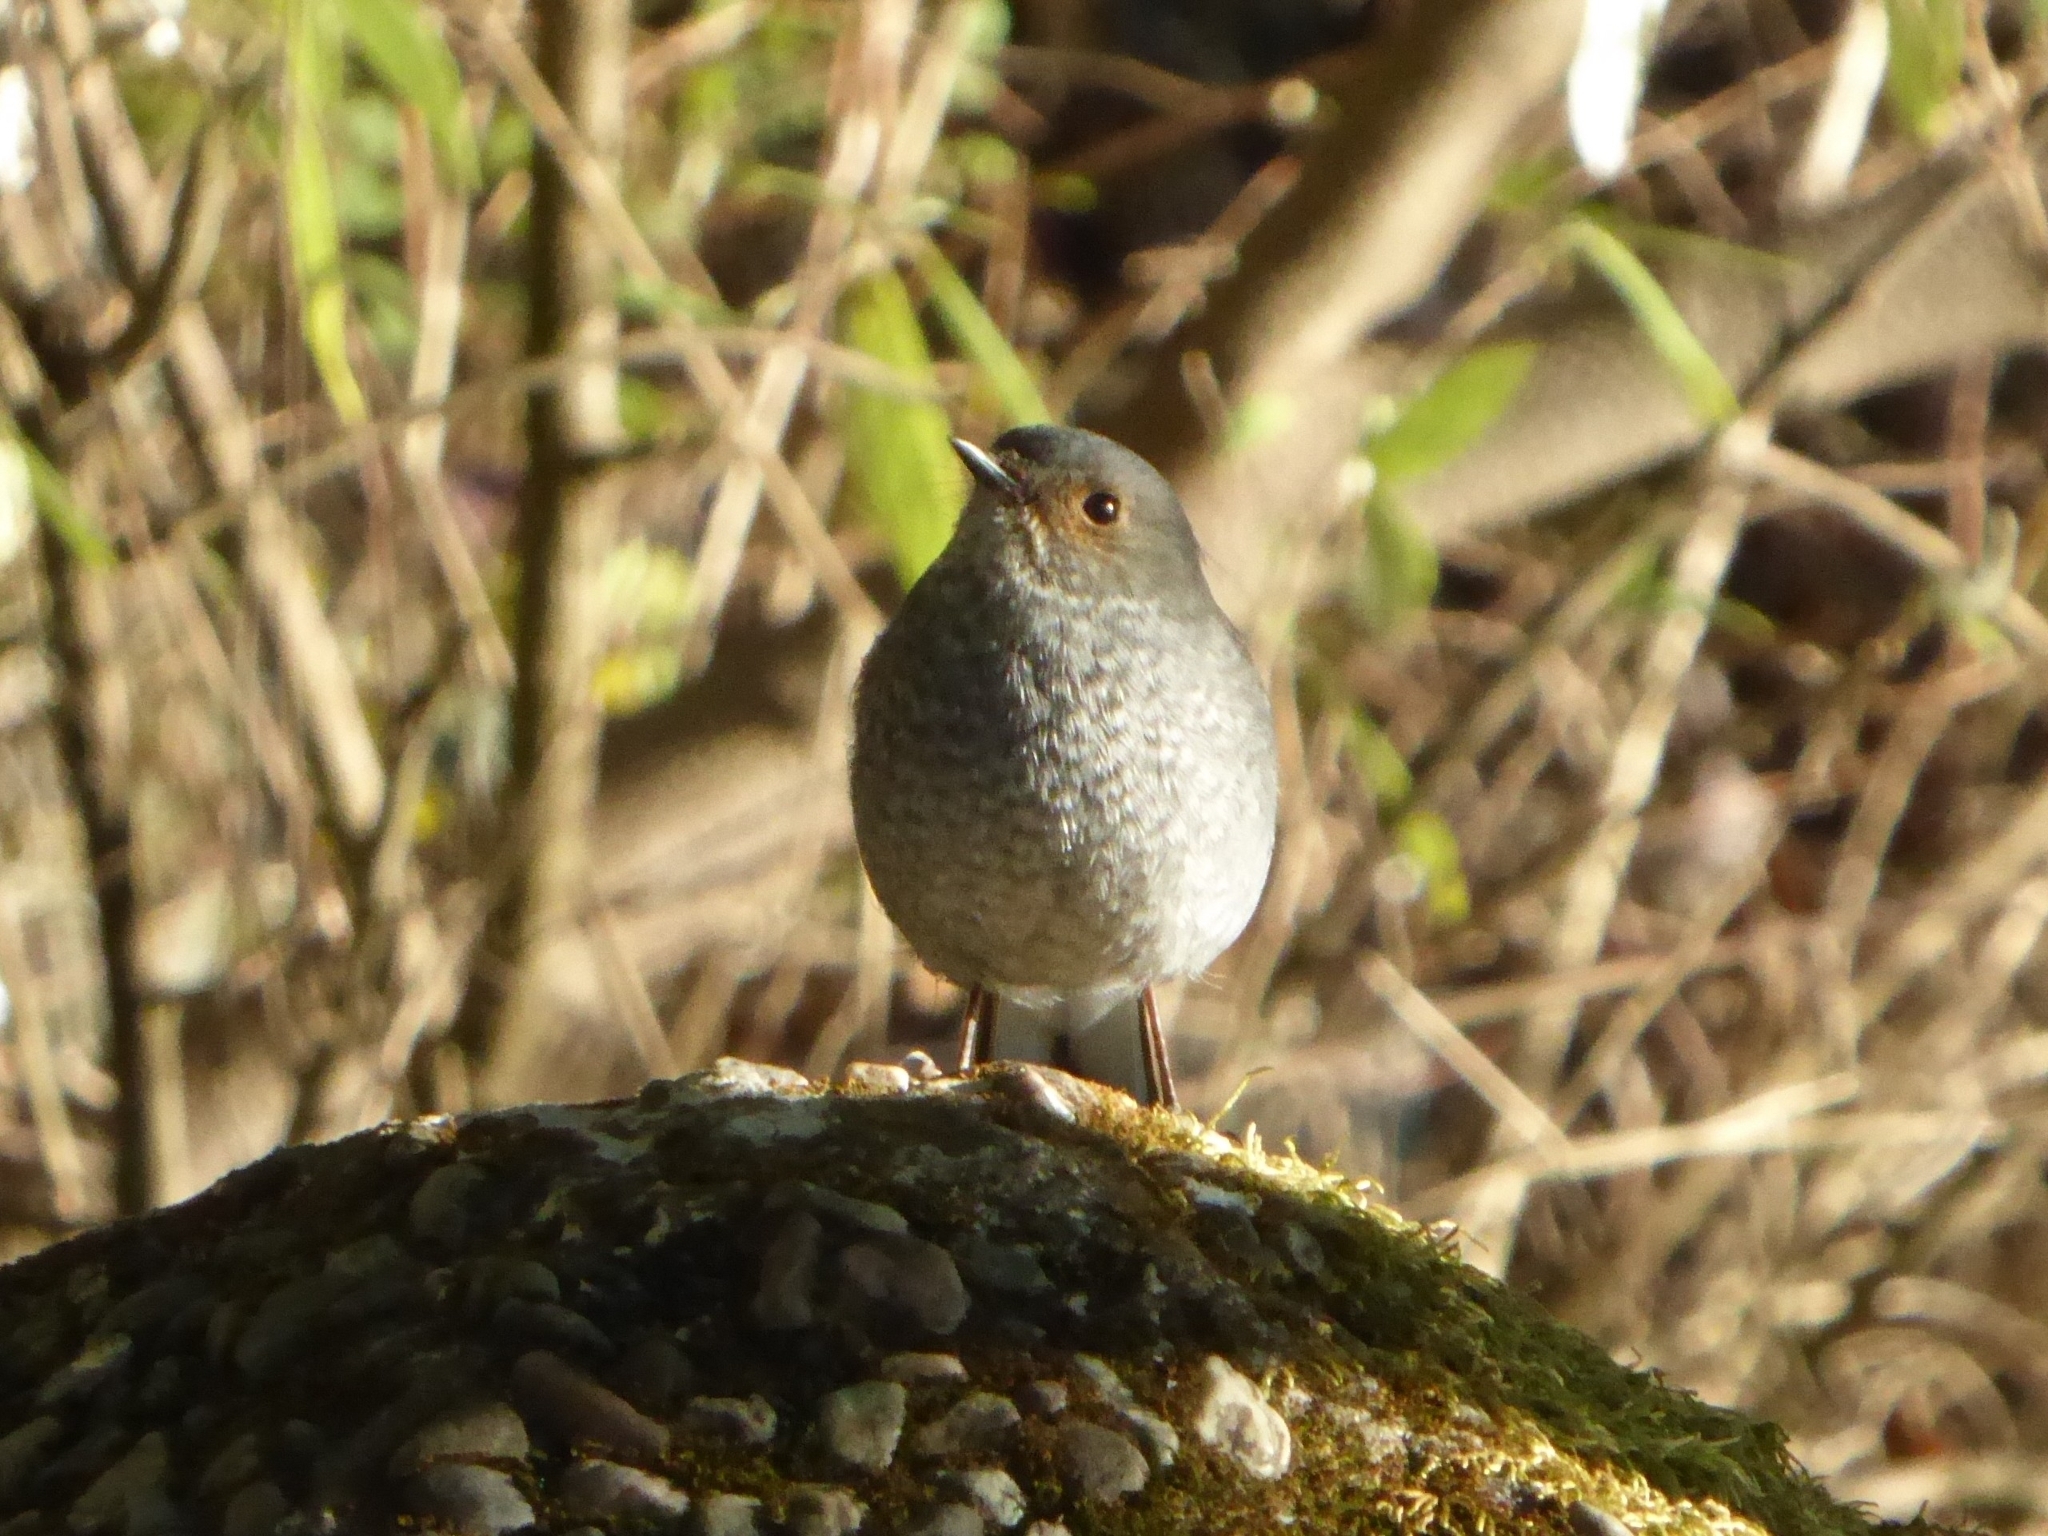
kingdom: Animalia
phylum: Chordata
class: Aves
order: Passeriformes
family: Muscicapidae
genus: Phoenicurus
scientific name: Phoenicurus fuliginosus
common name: Plumbeous water redstart
